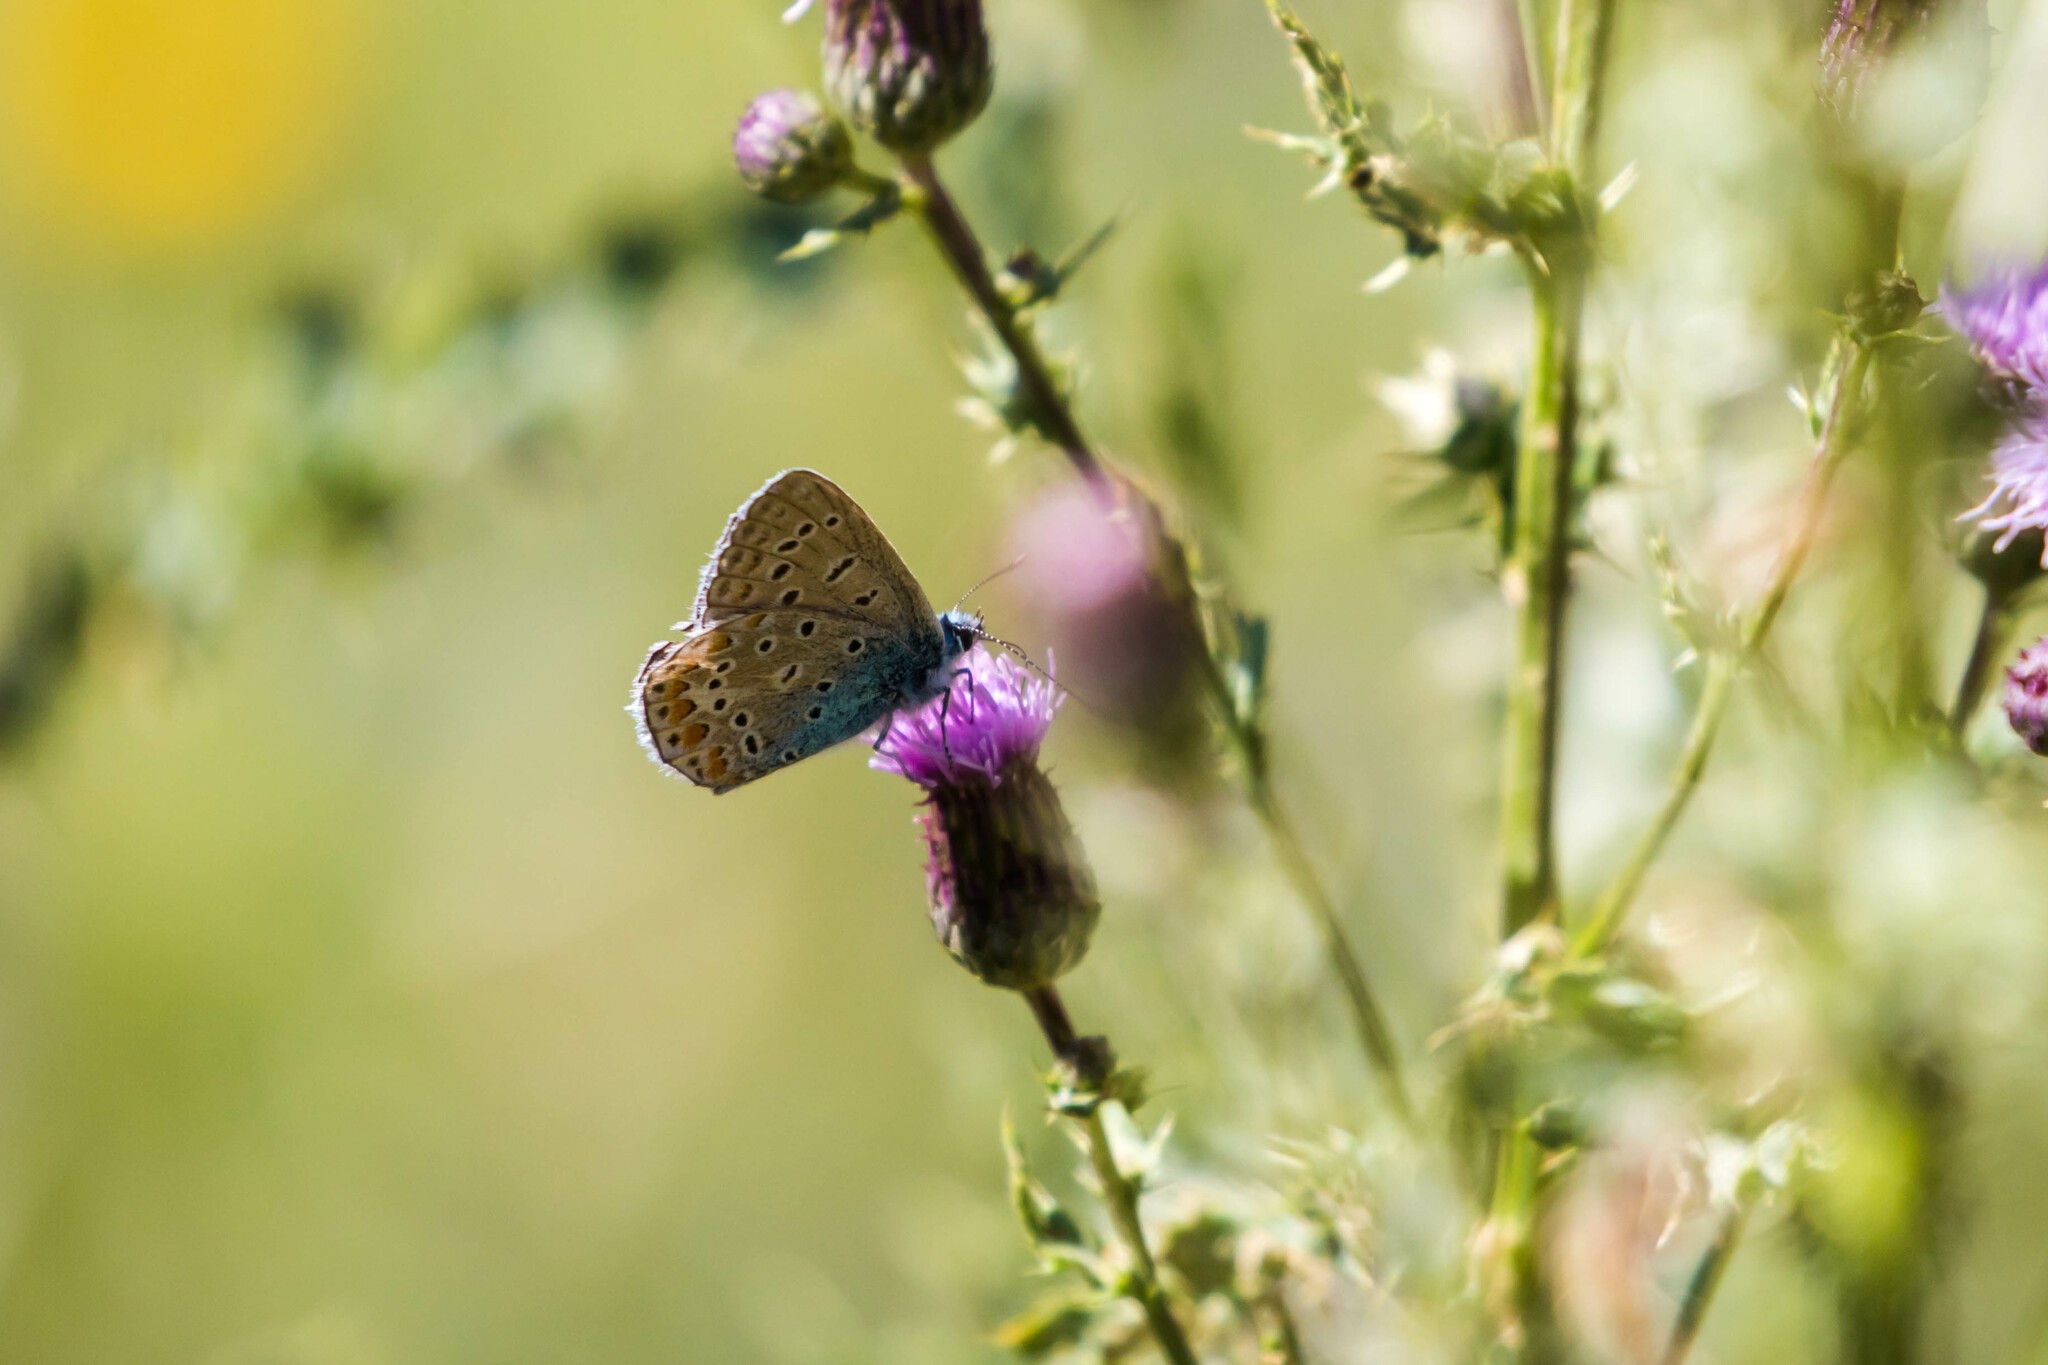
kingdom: Animalia
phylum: Arthropoda
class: Insecta
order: Lepidoptera
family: Lycaenidae
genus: Polyommatus
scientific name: Polyommatus icarus
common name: Common blue
